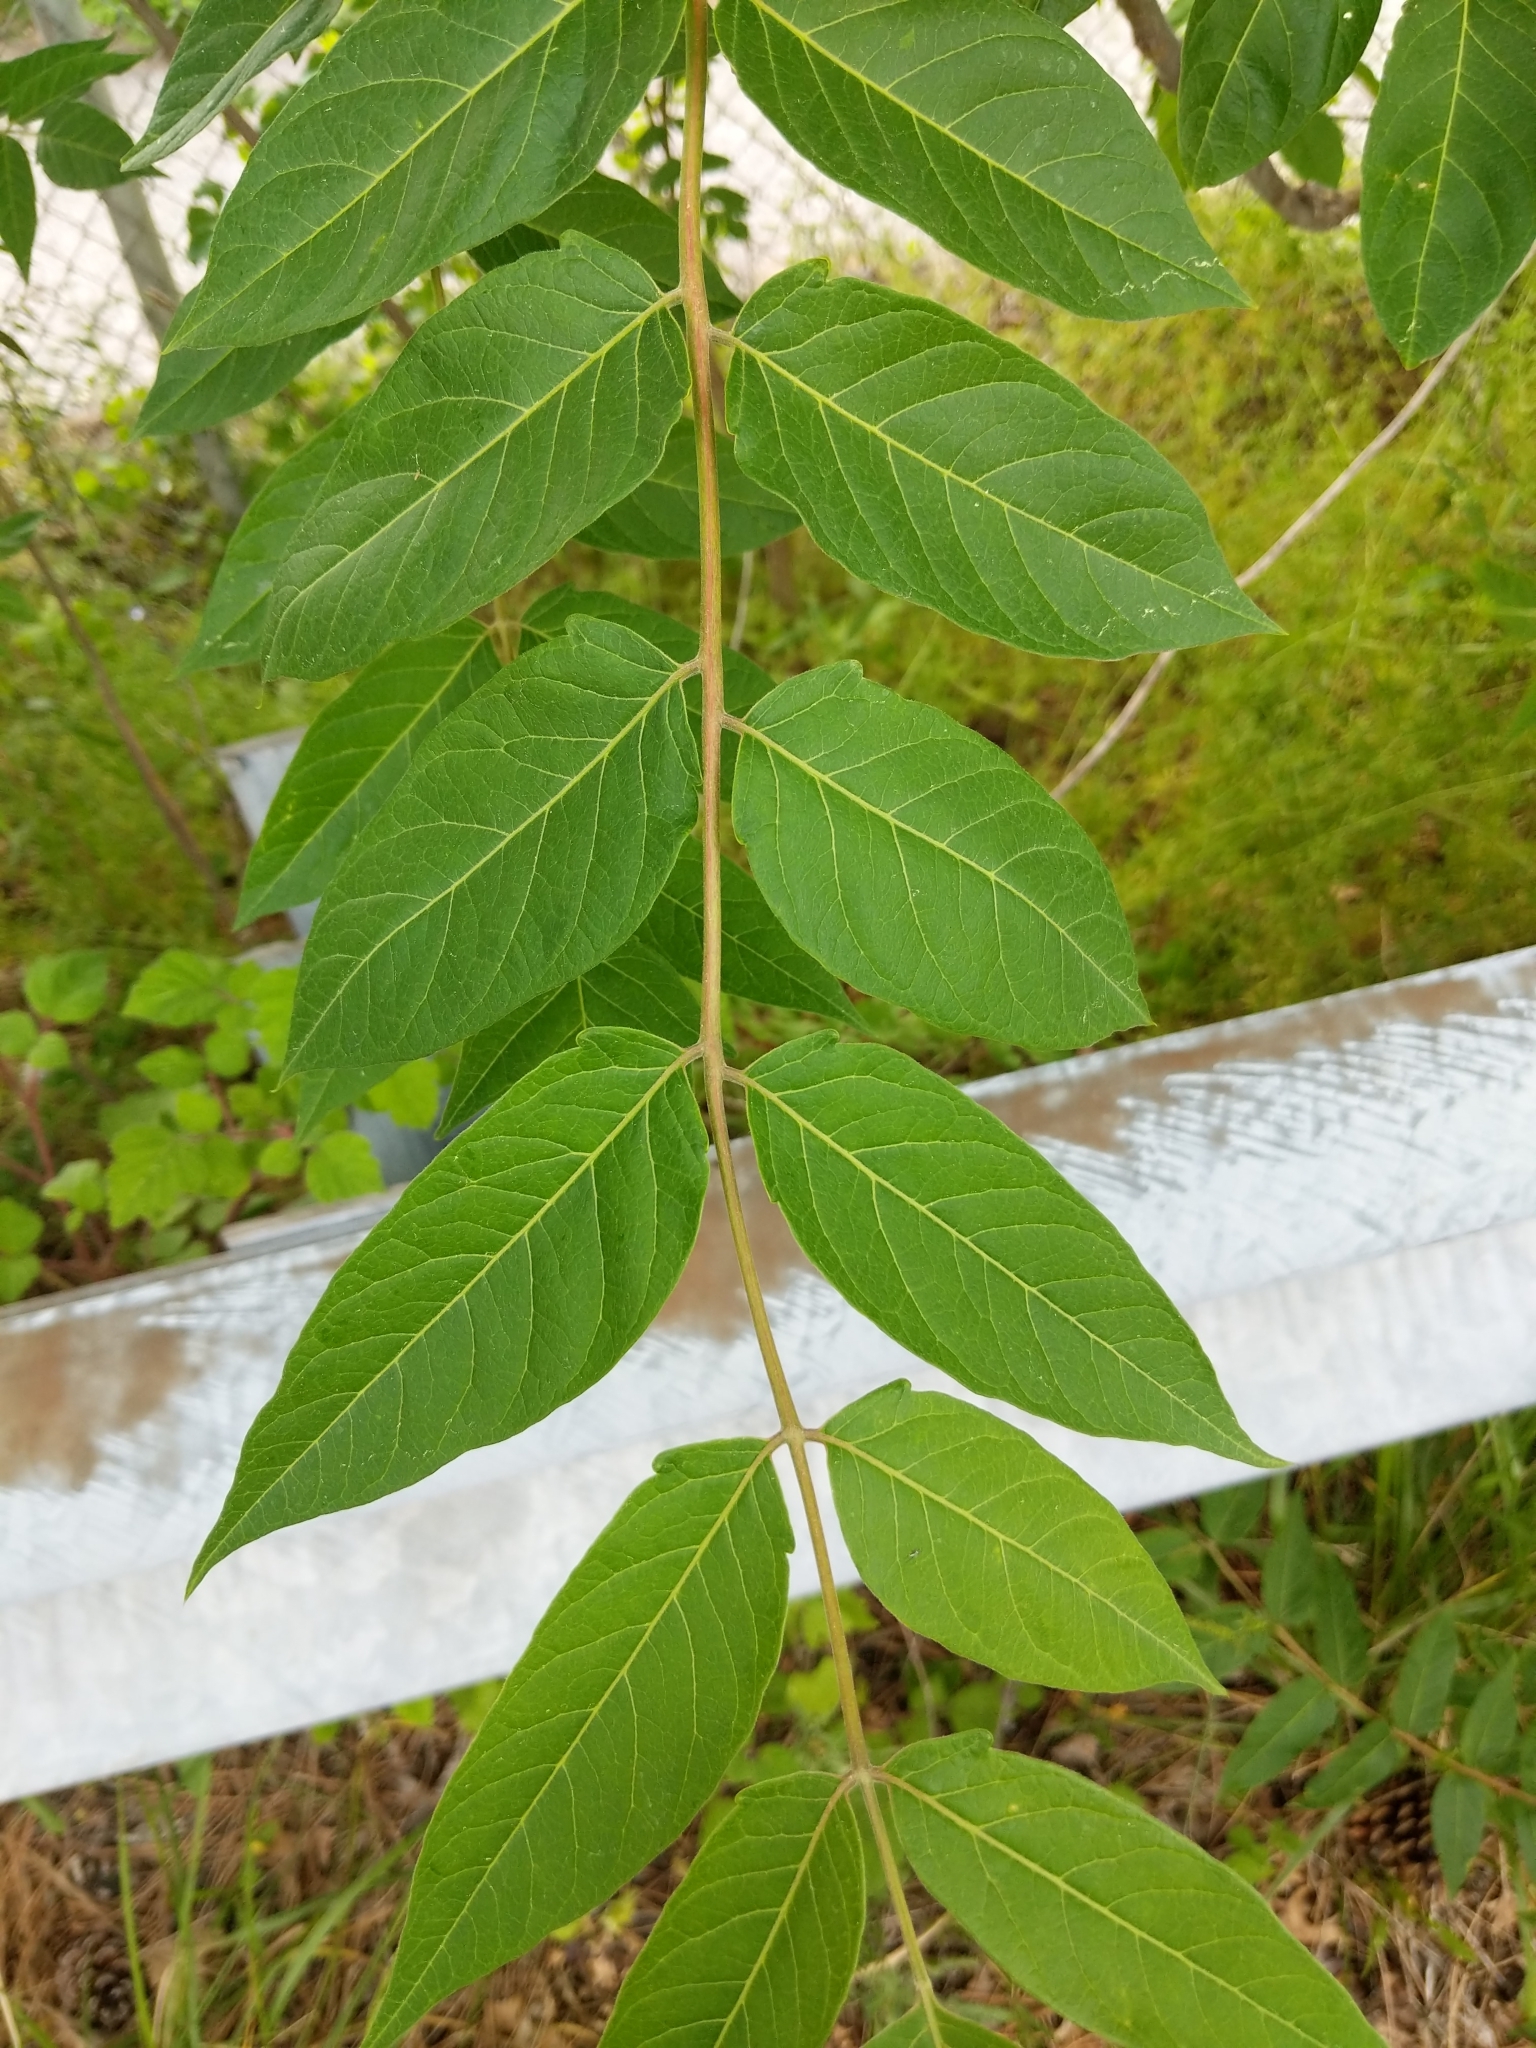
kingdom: Plantae
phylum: Tracheophyta
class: Magnoliopsida
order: Sapindales
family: Simaroubaceae
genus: Ailanthus
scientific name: Ailanthus altissima
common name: Tree-of-heaven
